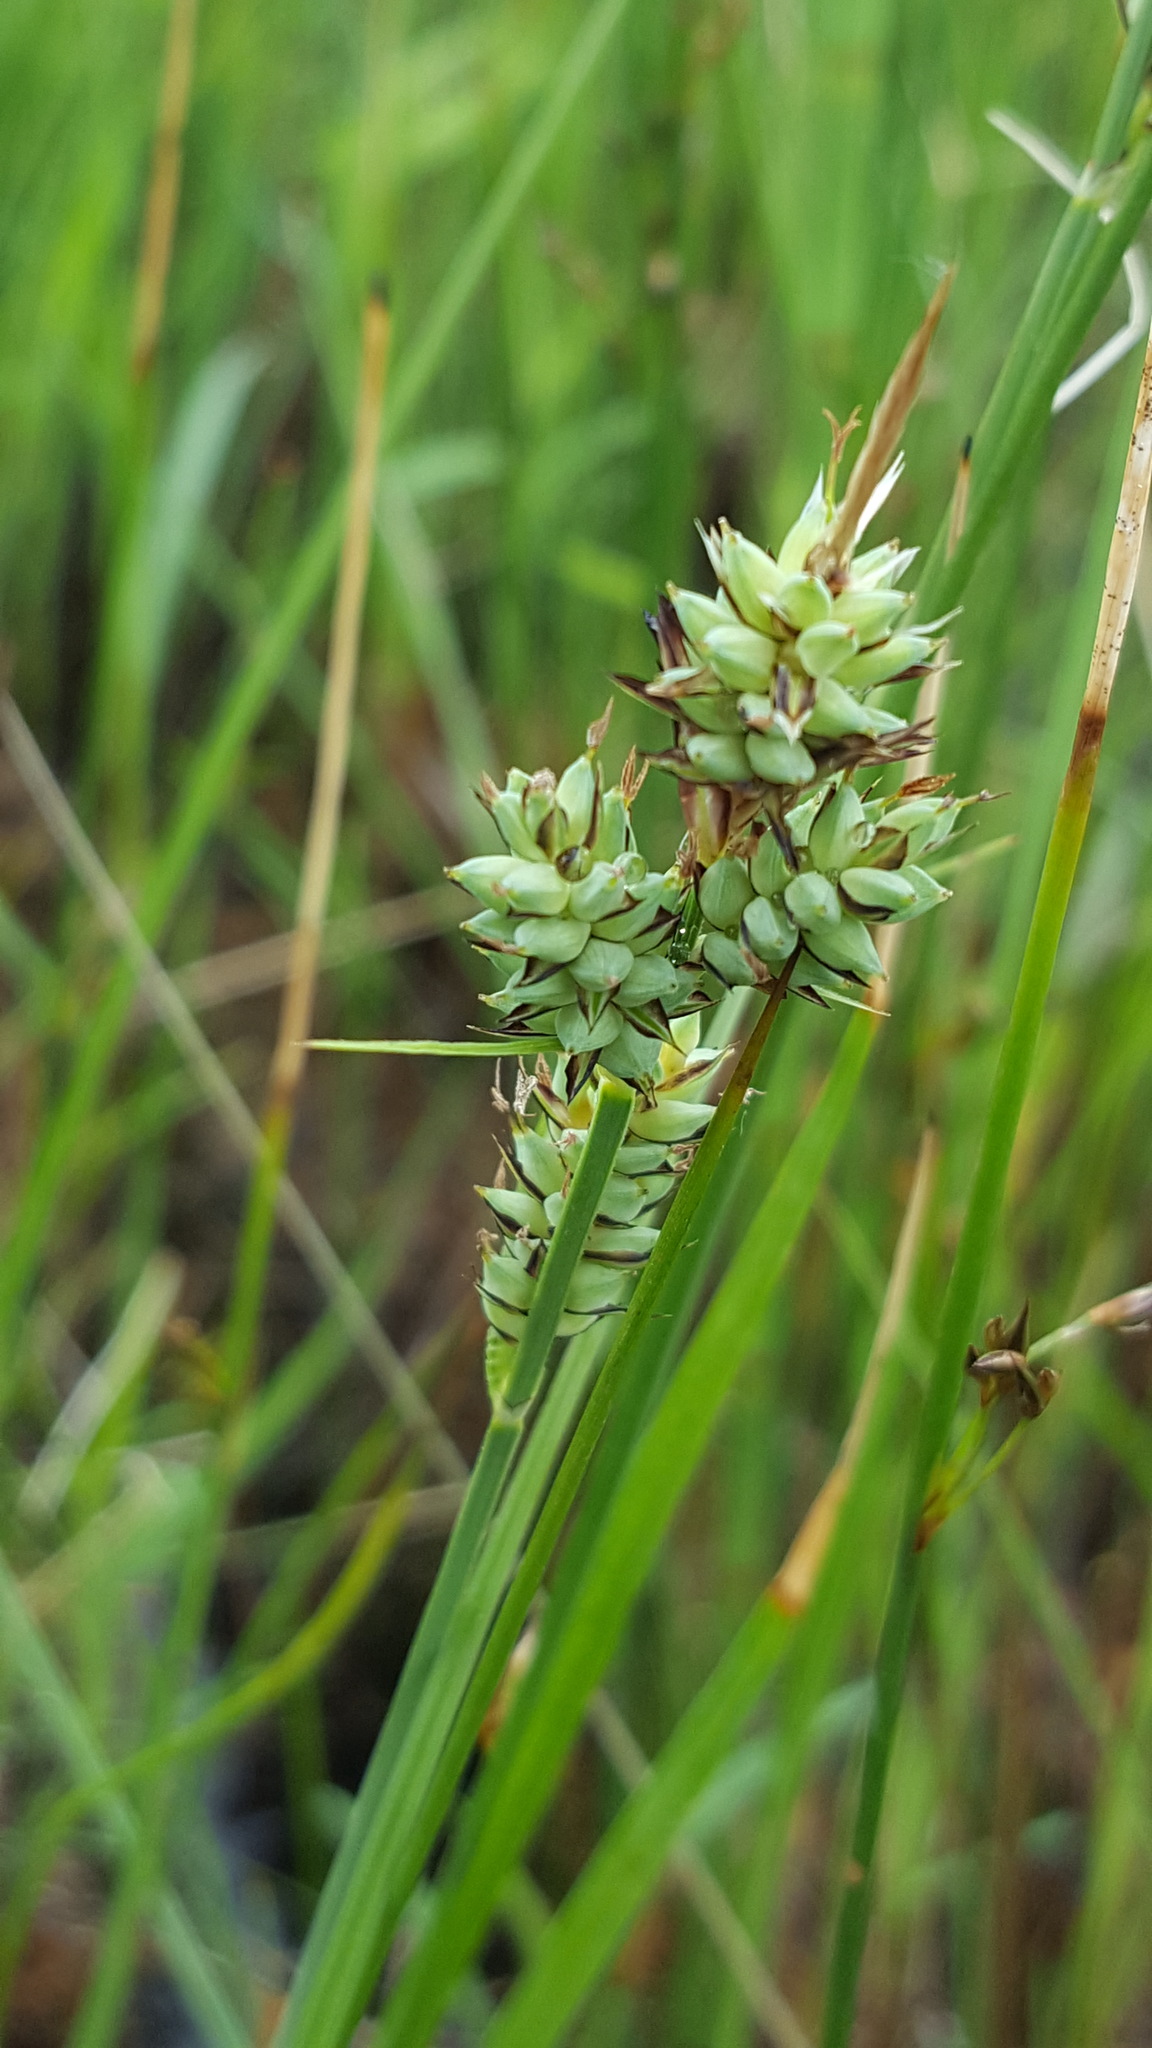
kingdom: Plantae
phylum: Tracheophyta
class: Liliopsida
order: Poales
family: Cyperaceae
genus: Carex
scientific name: Carex buxbaumii
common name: Club sedge
